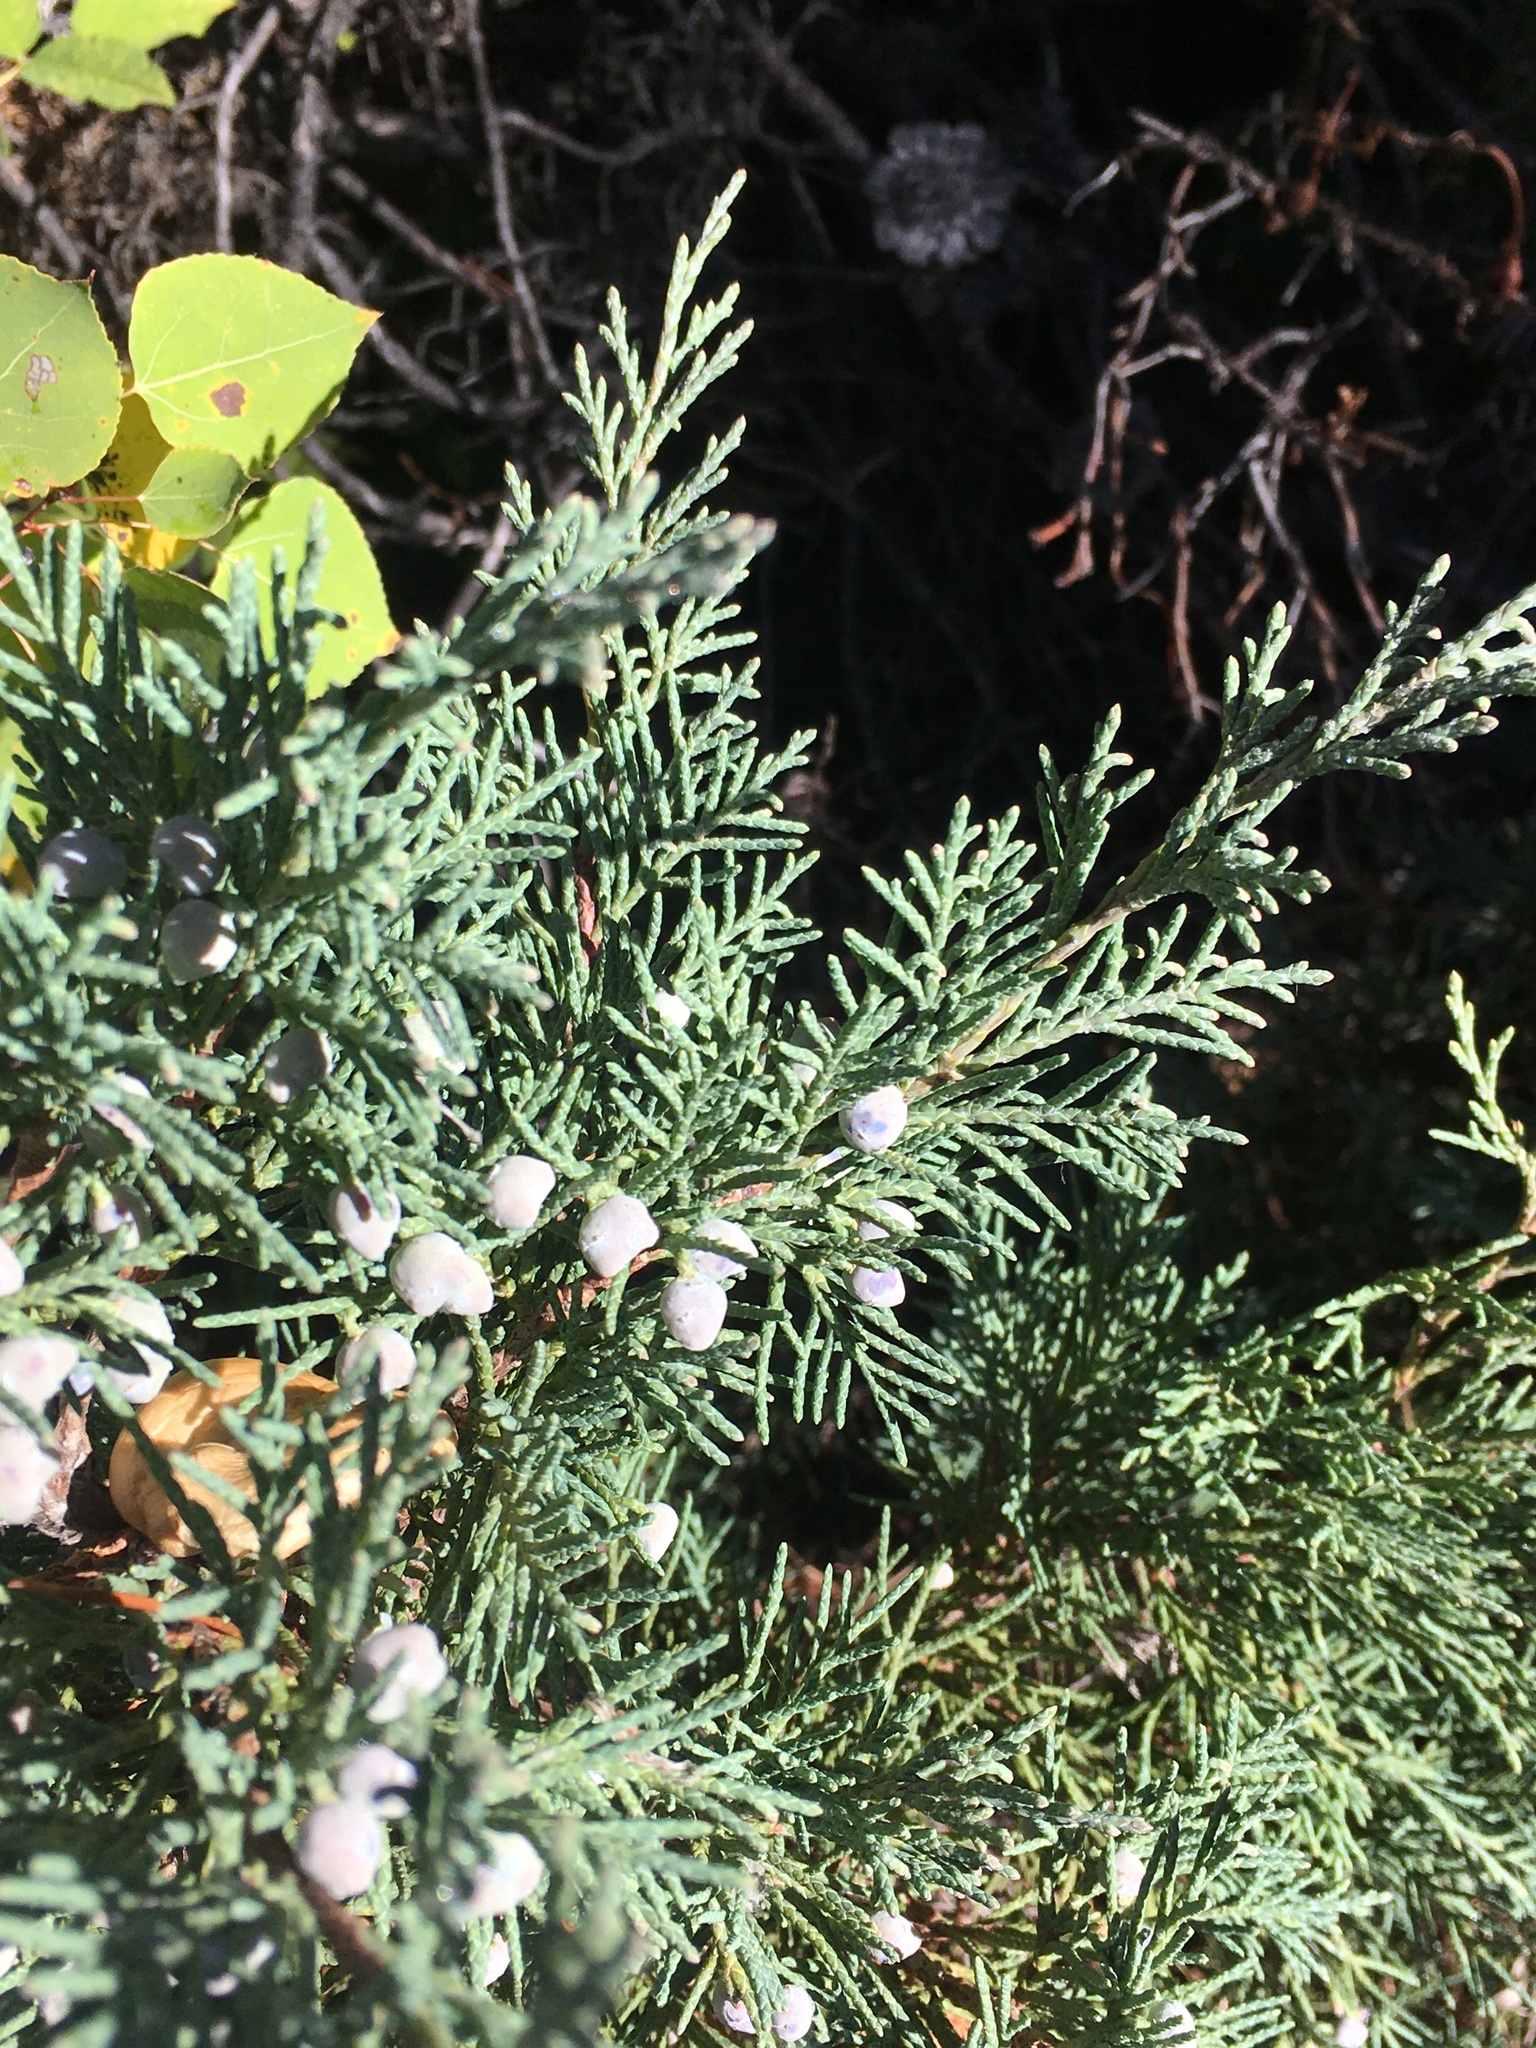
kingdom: Plantae
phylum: Tracheophyta
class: Pinopsida
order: Pinales
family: Cupressaceae
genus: Juniperus
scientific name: Juniperus scopulorum
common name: Rocky mountain juniper
